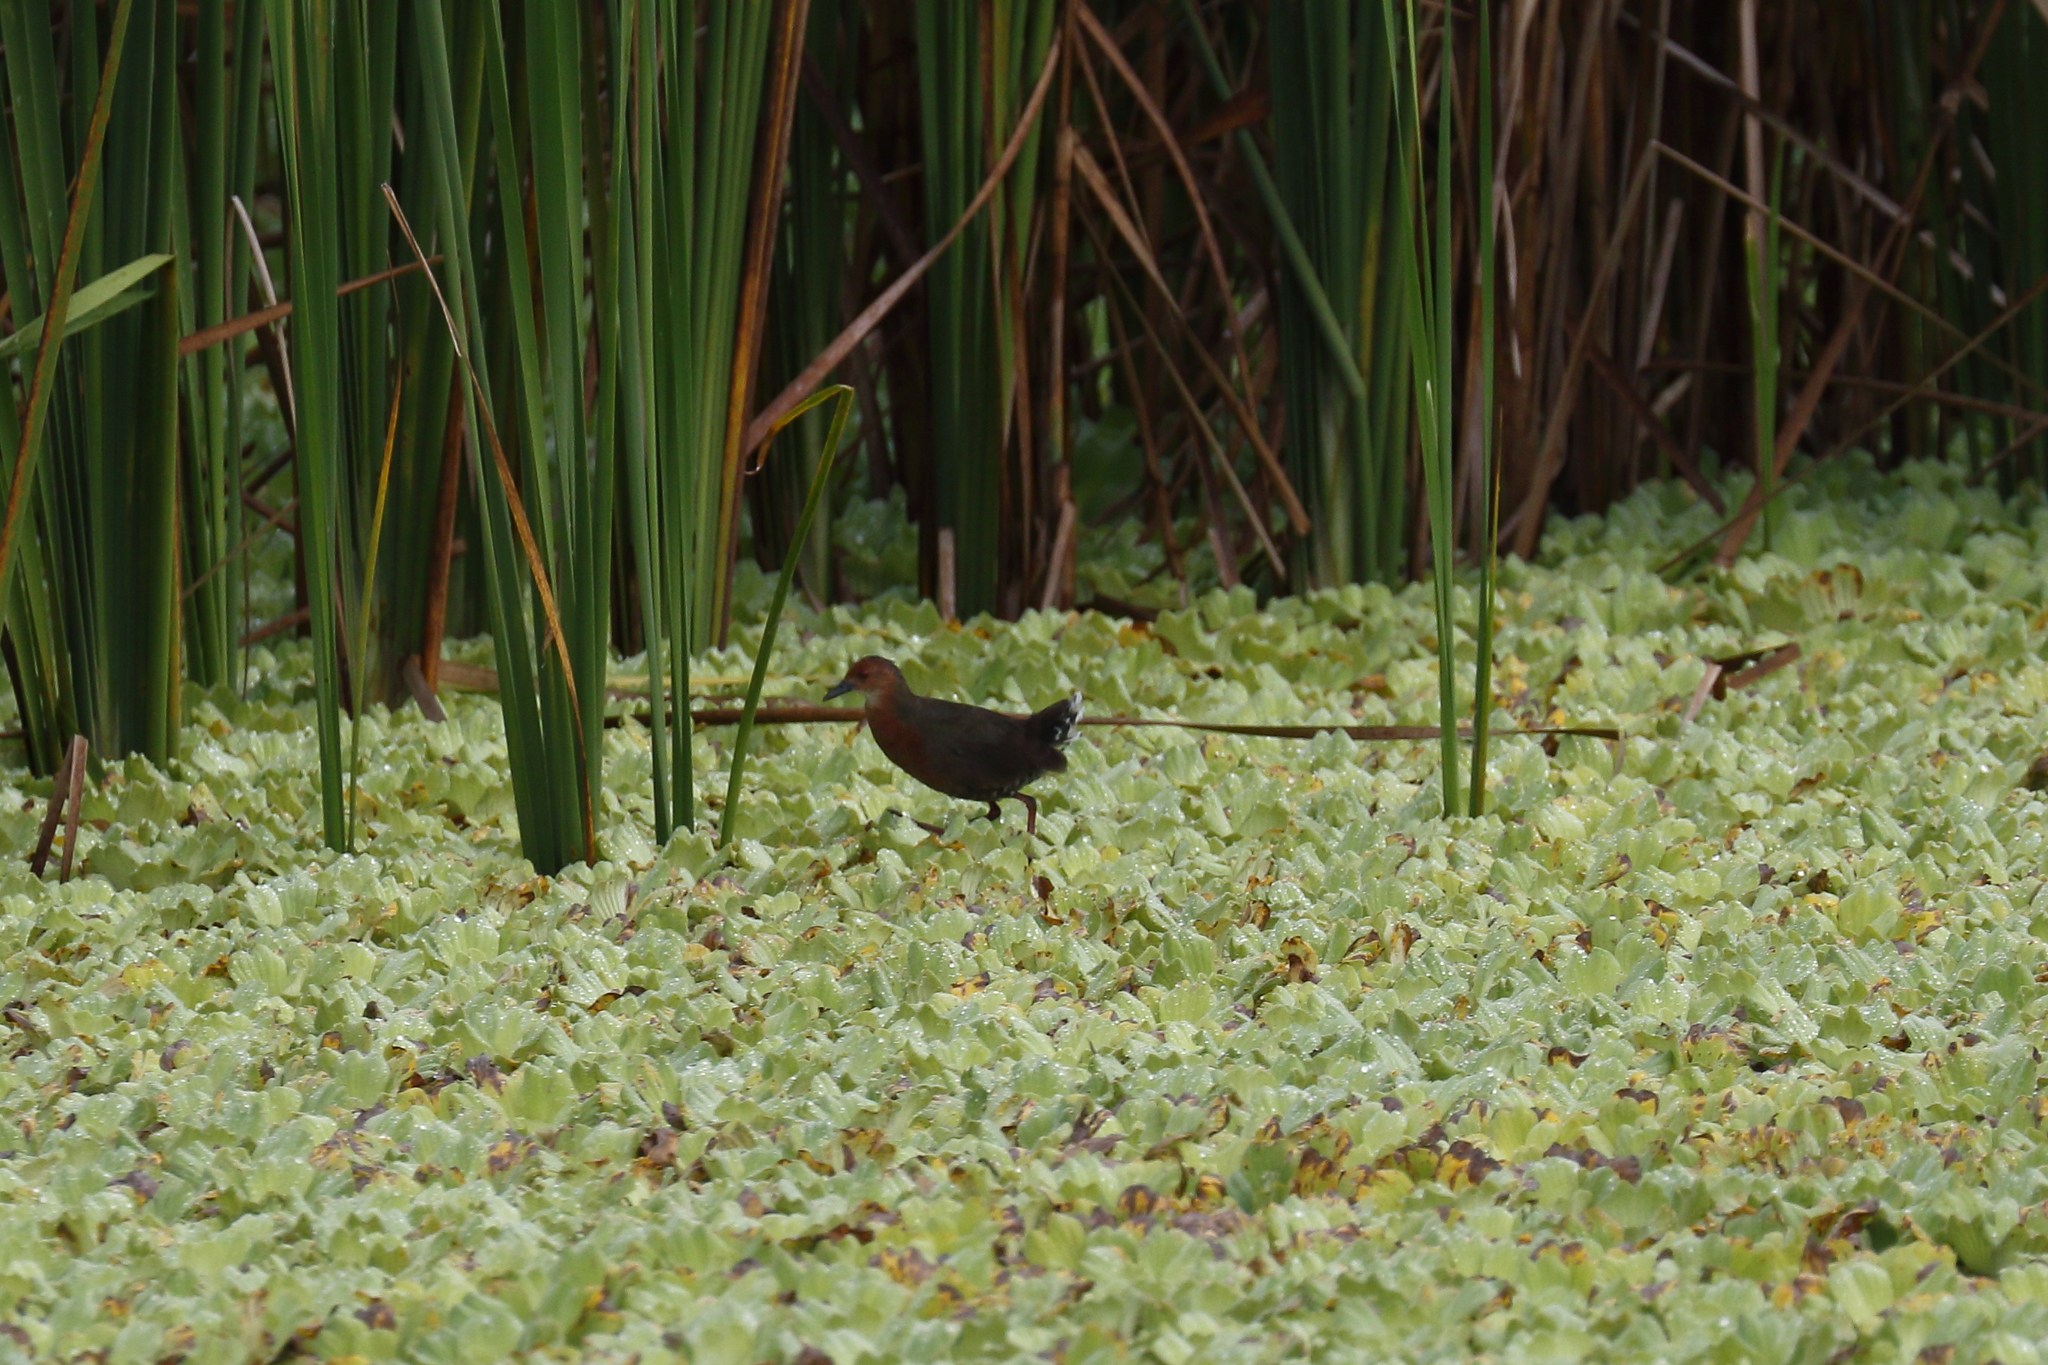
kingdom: Animalia
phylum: Chordata
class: Aves
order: Gruiformes
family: Rallidae
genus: Porzana
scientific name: Porzana fusca
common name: Ruddy-breasted crake
